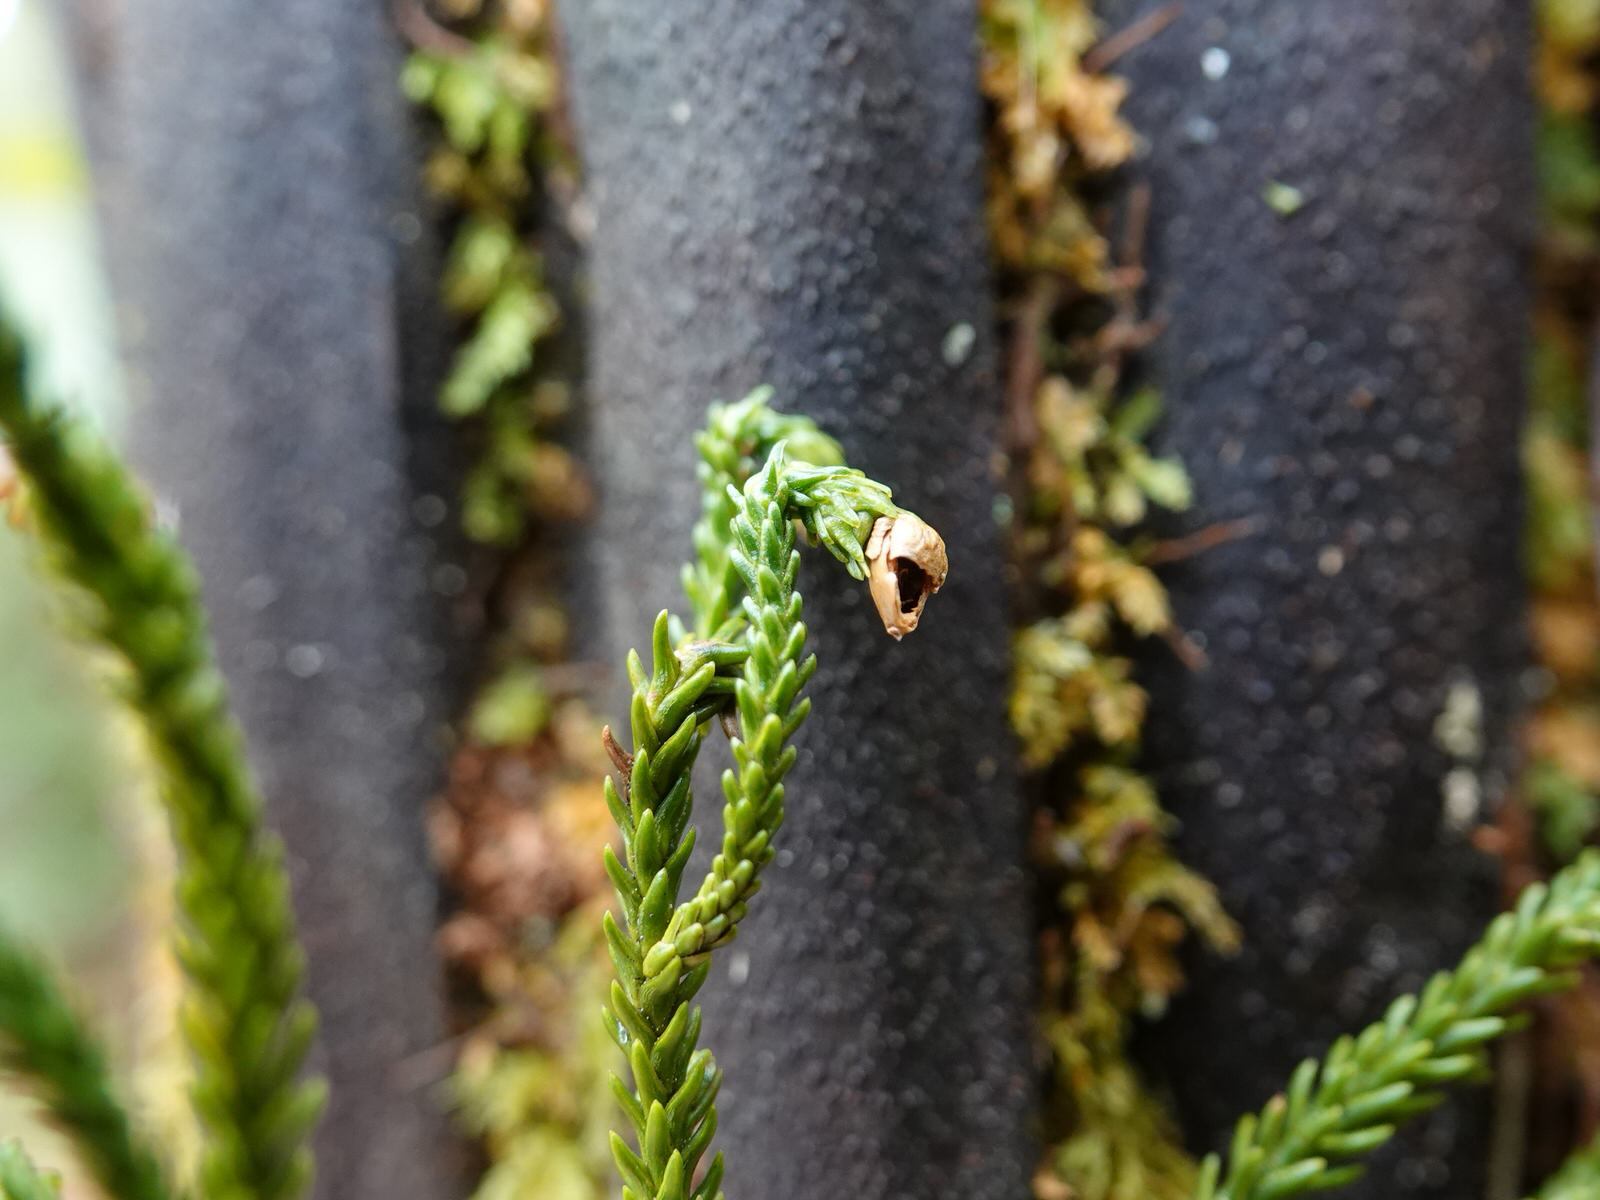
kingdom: Plantae
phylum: Tracheophyta
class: Pinopsida
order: Pinales
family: Podocarpaceae
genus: Dacrydium
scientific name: Dacrydium cupressinum
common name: Red pine
